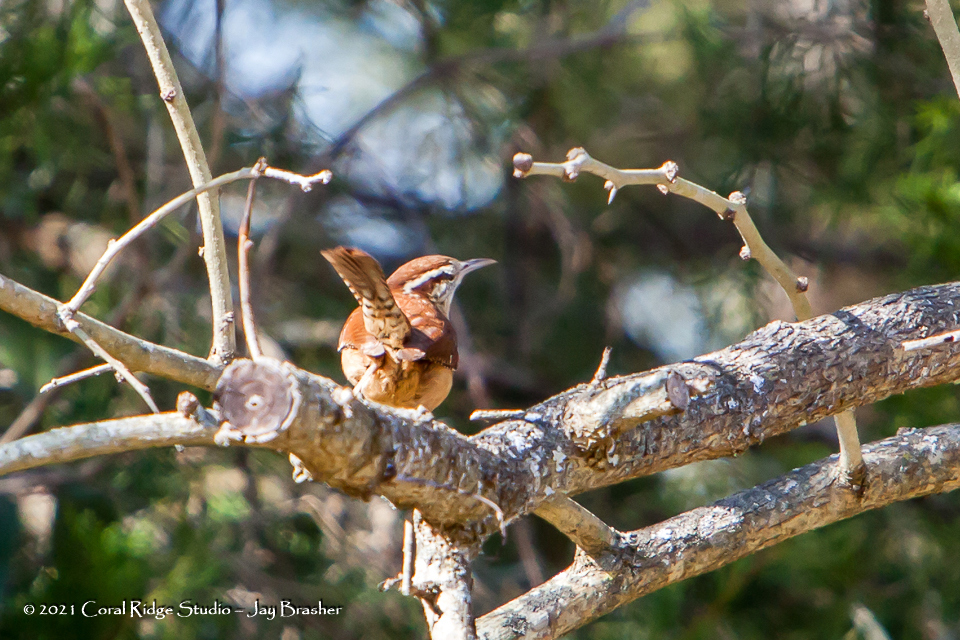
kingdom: Animalia
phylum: Chordata
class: Aves
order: Passeriformes
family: Troglodytidae
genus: Thryothorus
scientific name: Thryothorus ludovicianus
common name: Carolina wren
